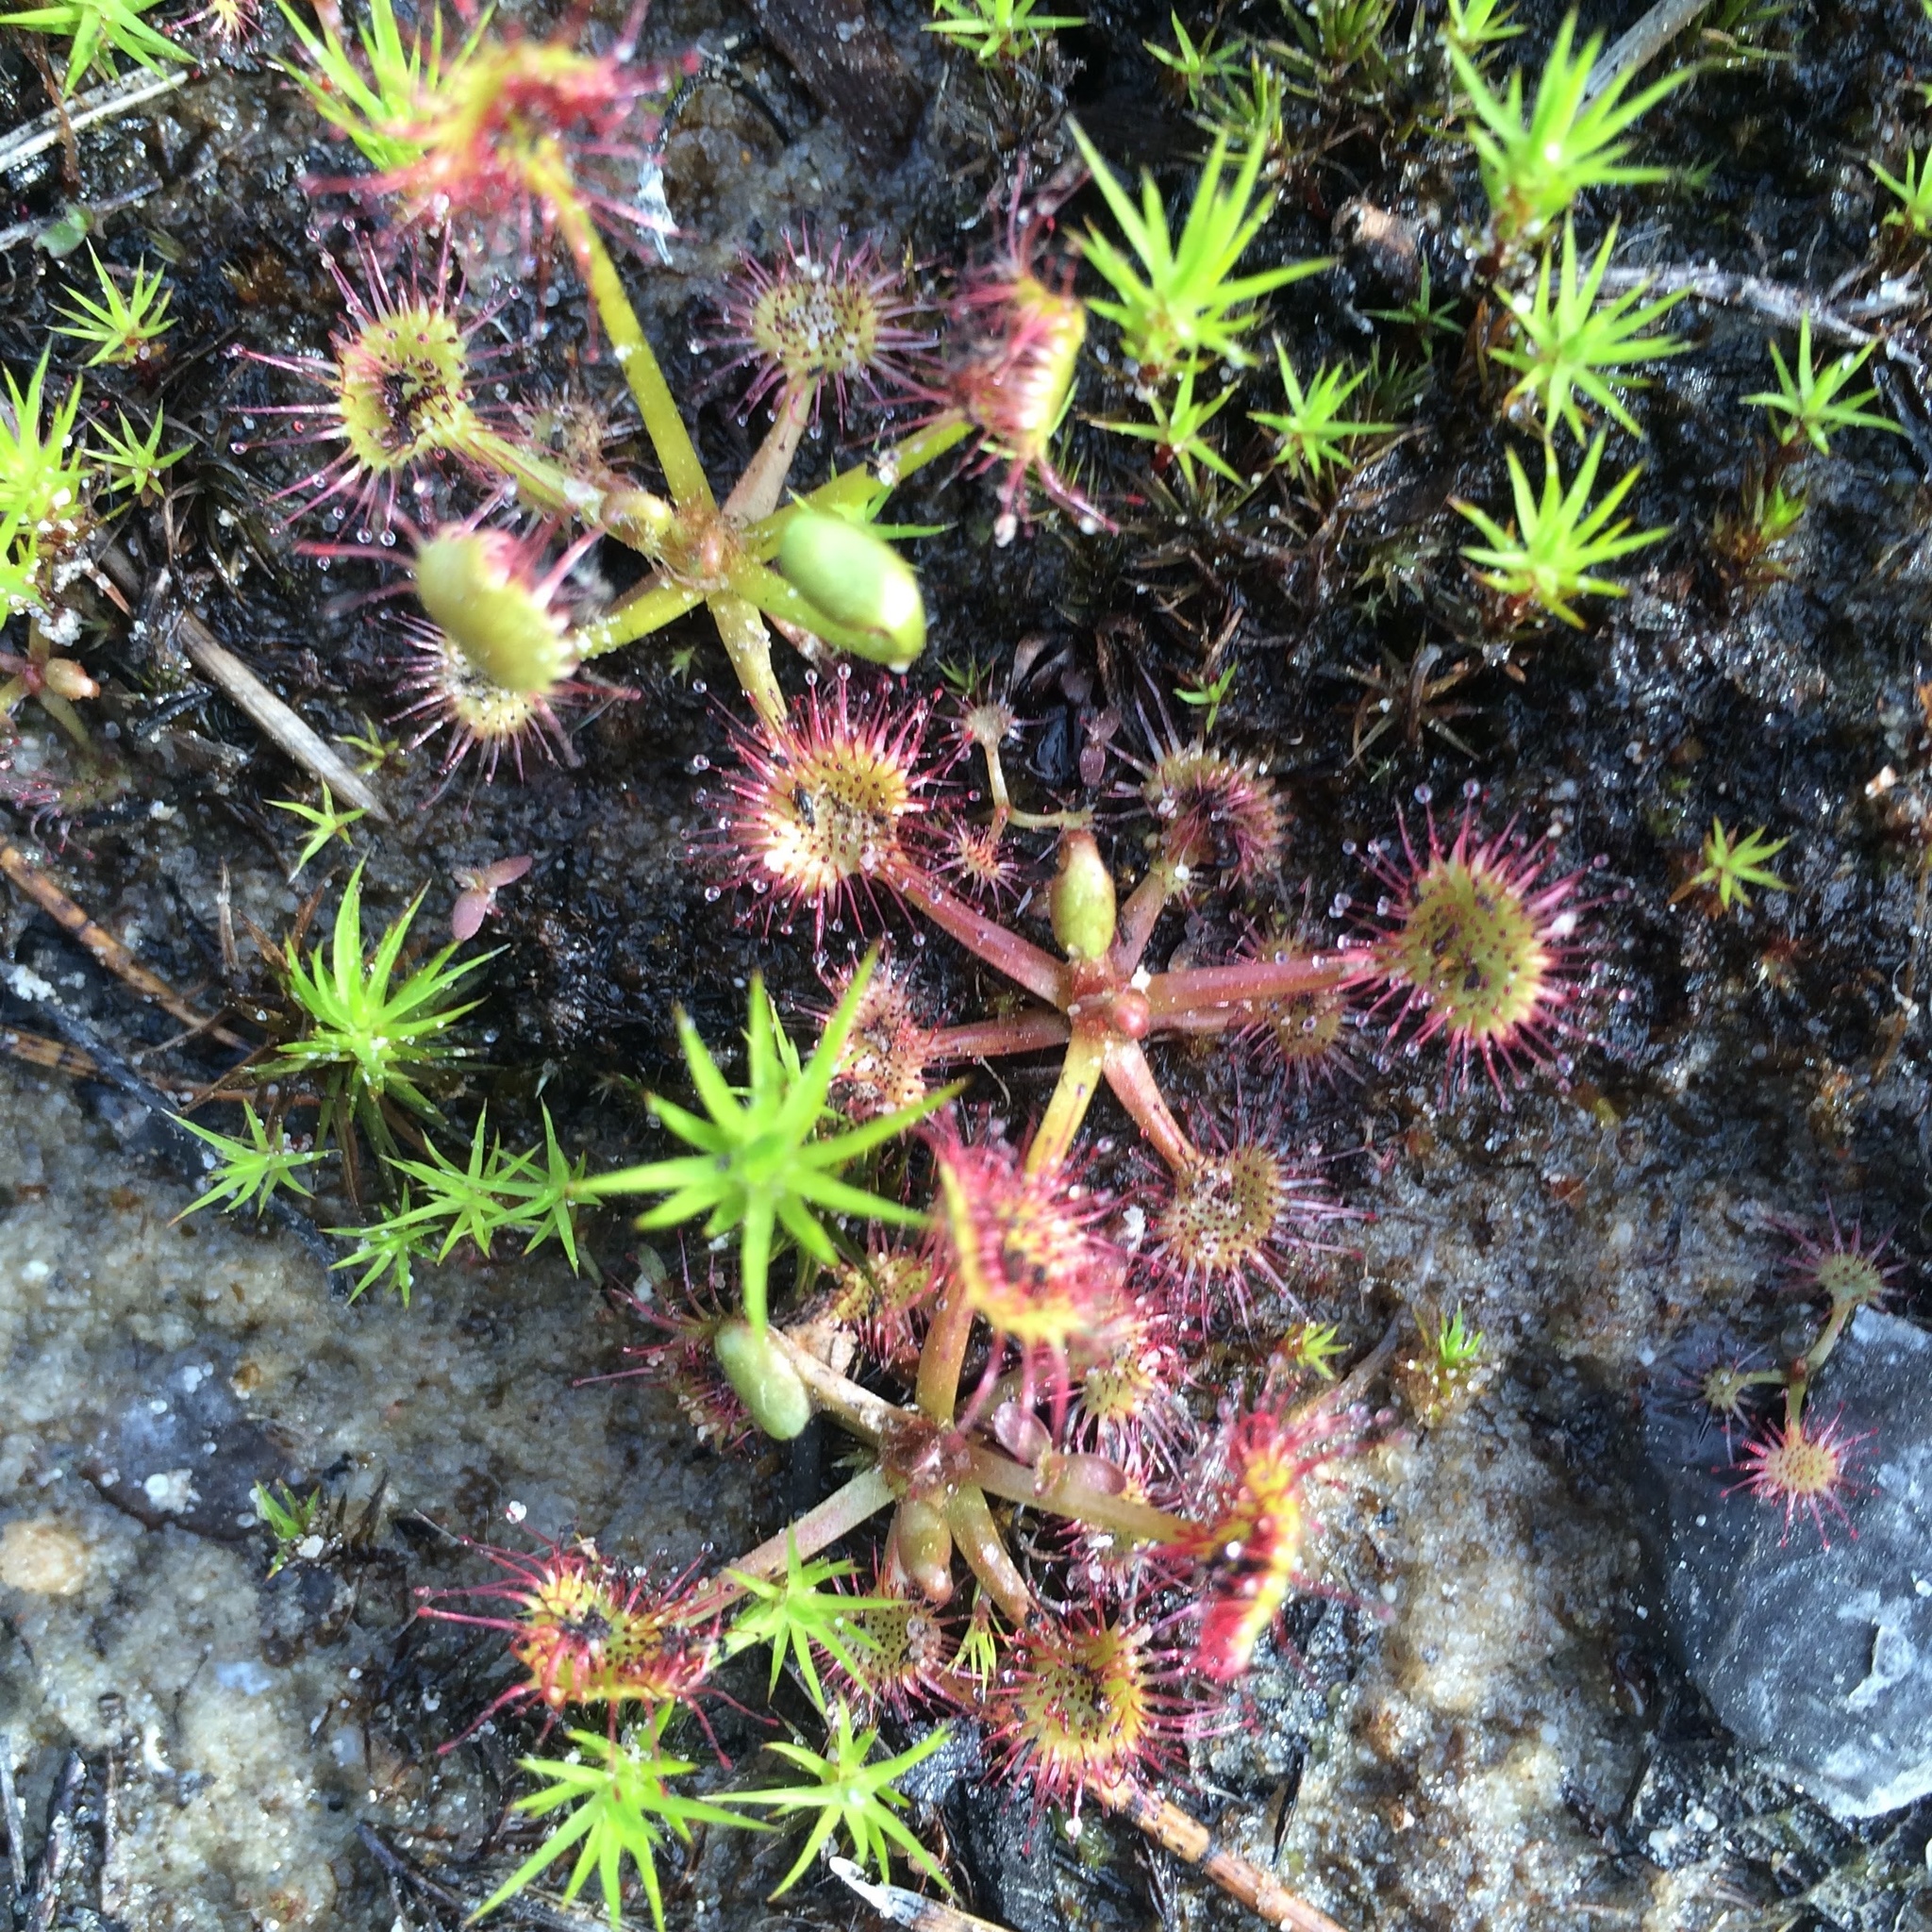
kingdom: Plantae
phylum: Tracheophyta
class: Magnoliopsida
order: Caryophyllales
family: Droseraceae
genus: Drosera
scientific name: Drosera rotundifolia
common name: Round-leaved sundew
